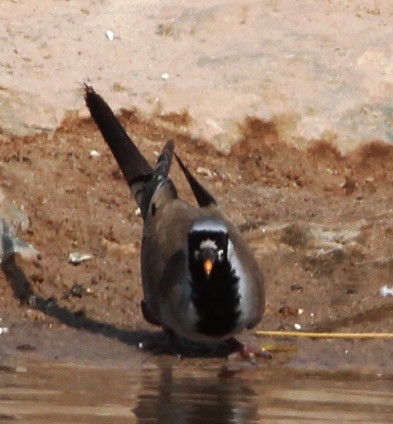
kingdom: Animalia
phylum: Chordata
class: Aves
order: Columbiformes
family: Columbidae
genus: Oena
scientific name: Oena capensis
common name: Namaqua dove
